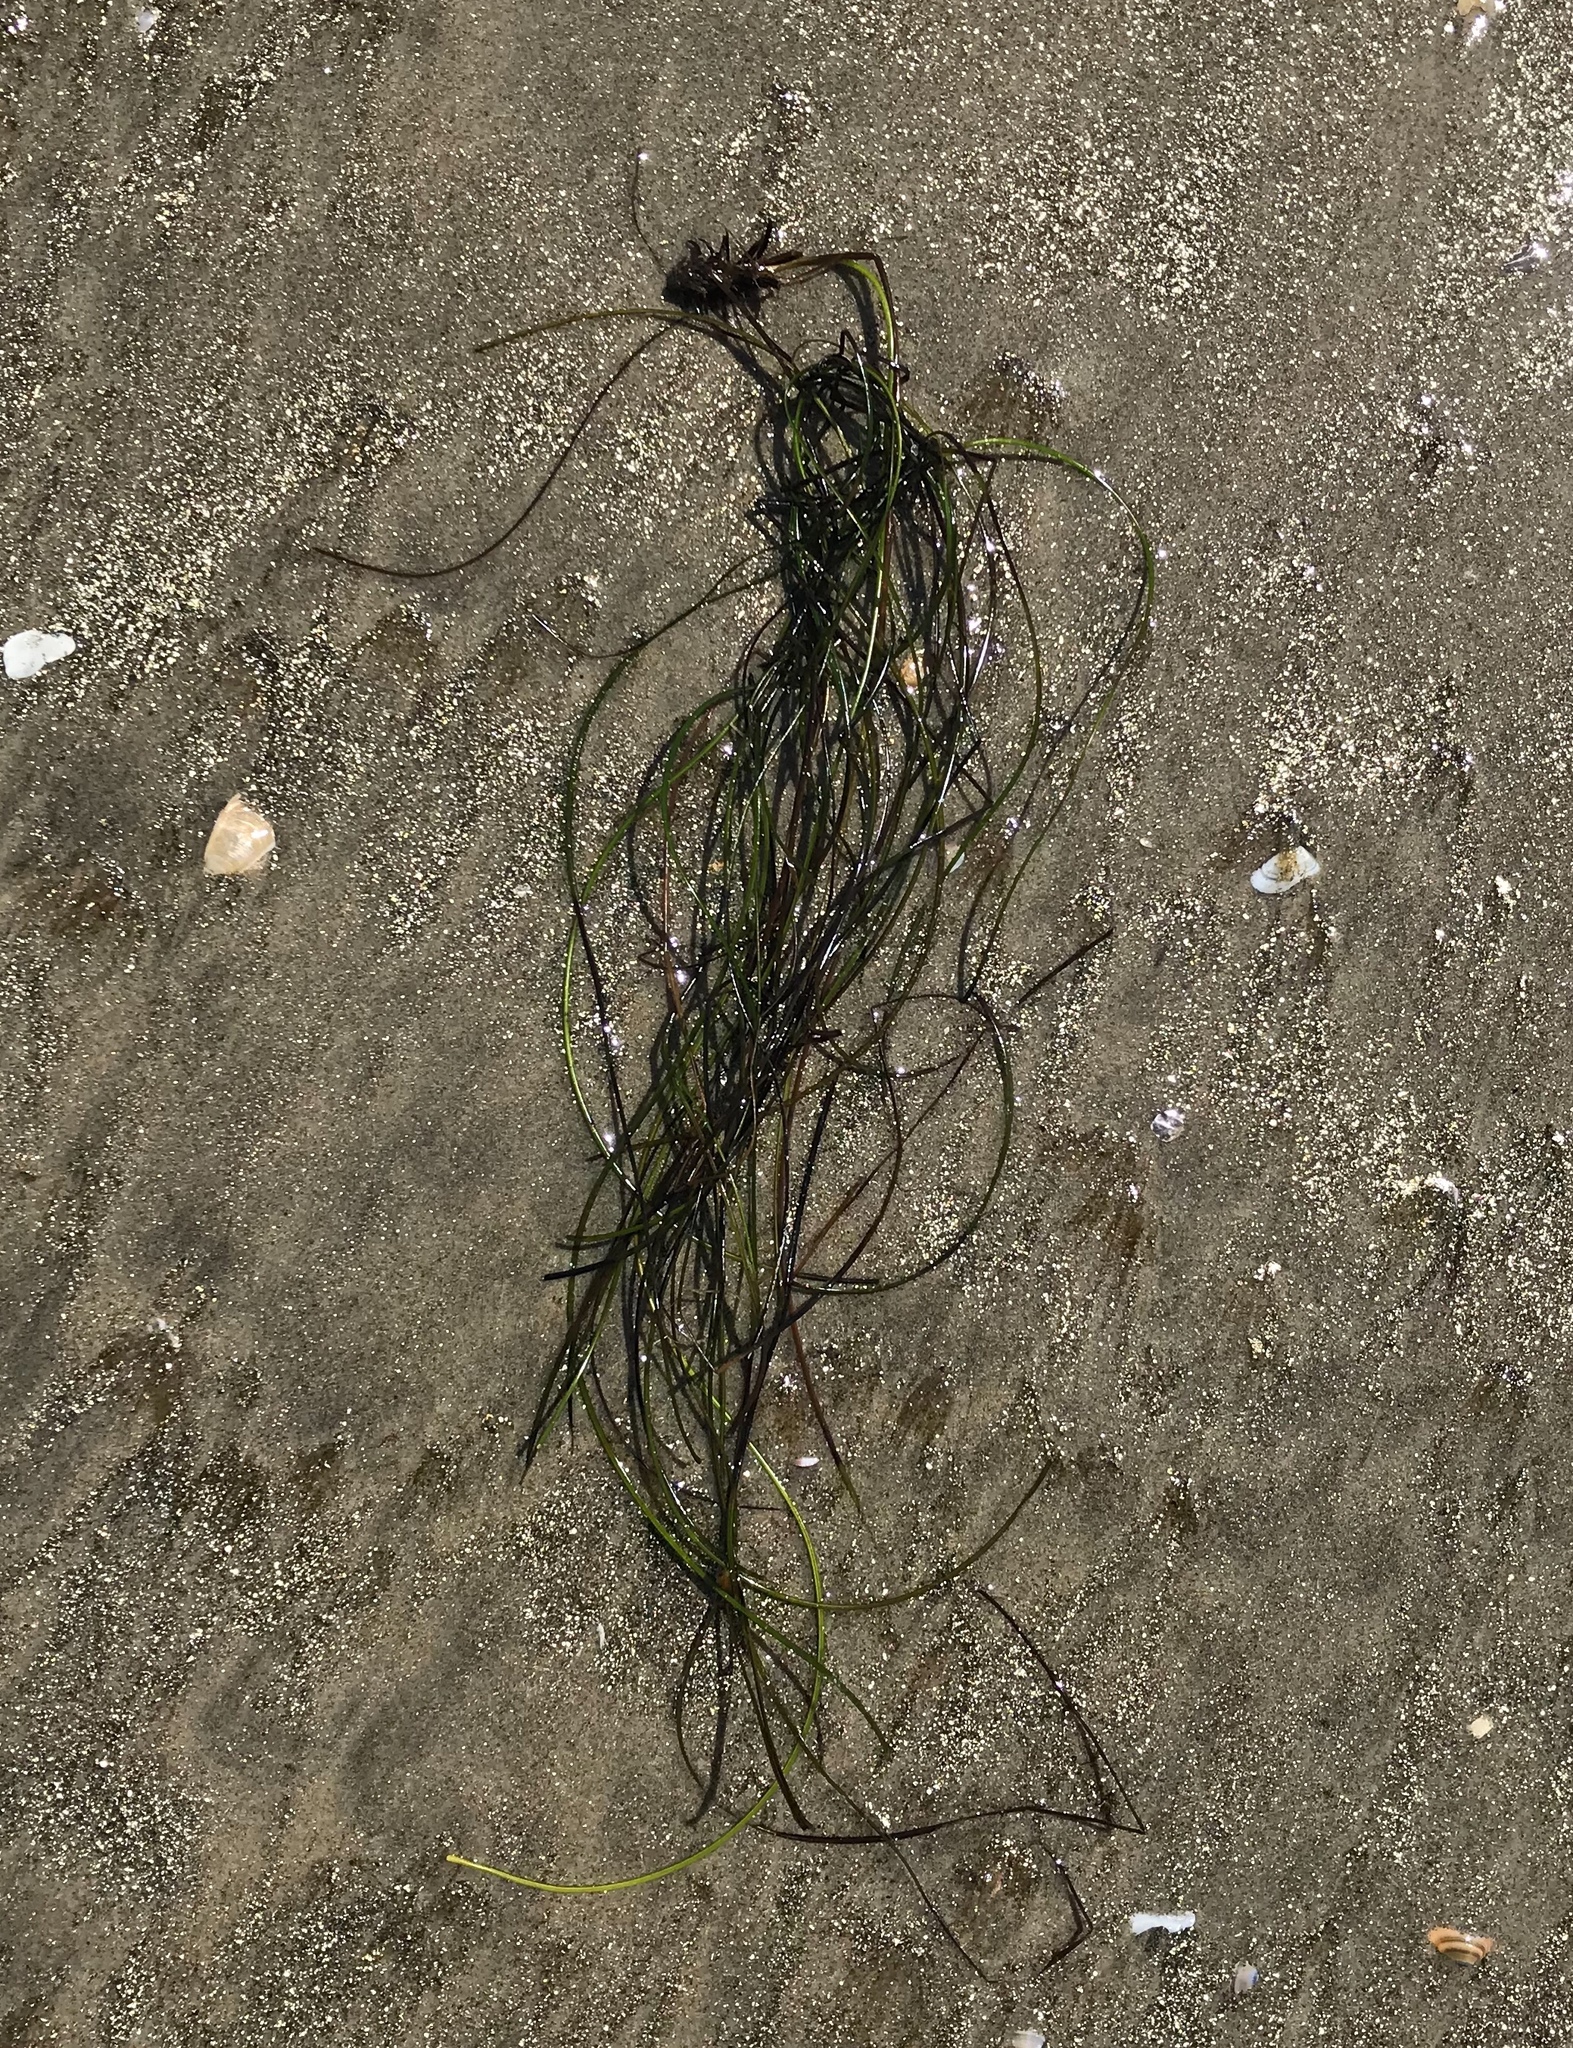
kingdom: Plantae
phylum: Tracheophyta
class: Liliopsida
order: Alismatales
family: Zosteraceae
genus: Phyllospadix
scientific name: Phyllospadix torreyi
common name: Surfgrass
